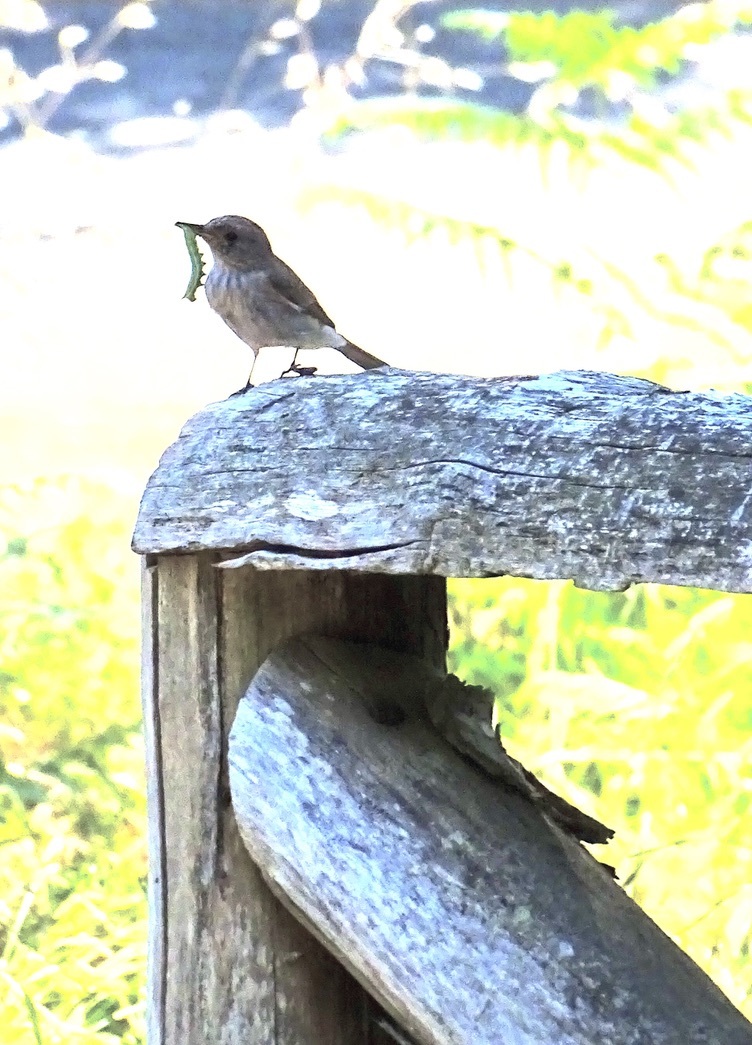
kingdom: Animalia
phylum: Chordata
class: Aves
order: Passeriformes
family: Muscicapidae
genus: Muscicapa
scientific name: Muscicapa striata
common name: Spotted flycatcher
